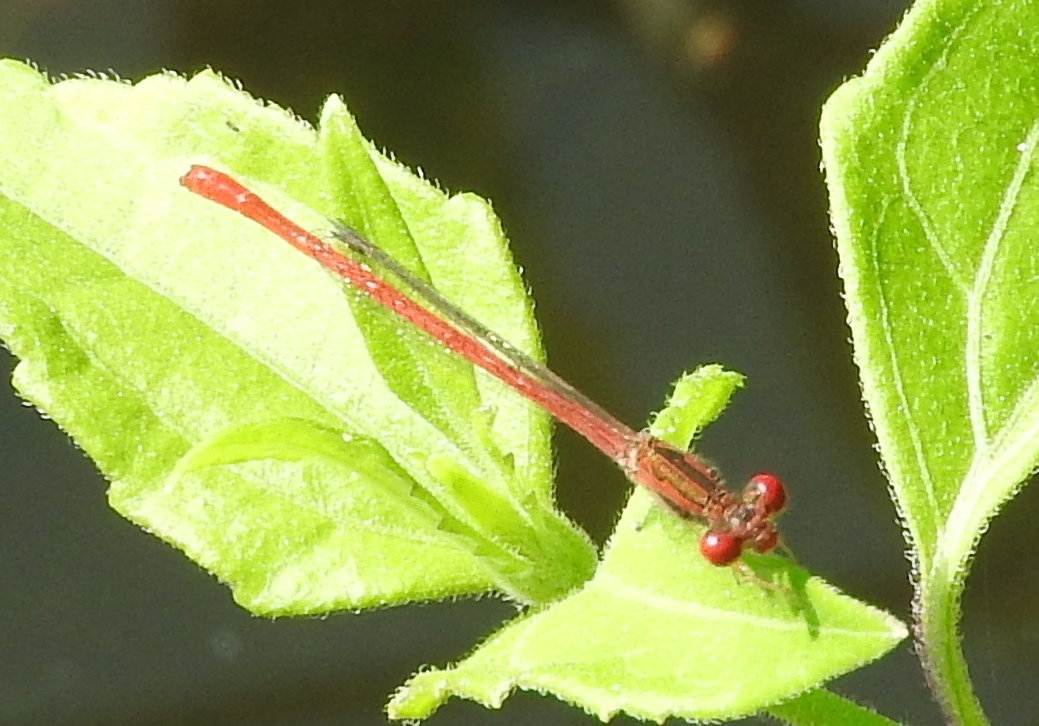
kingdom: Animalia
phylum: Arthropoda
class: Insecta
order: Odonata
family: Coenagrionidae
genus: Telebasis
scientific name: Telebasis salva
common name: Desert firetail
